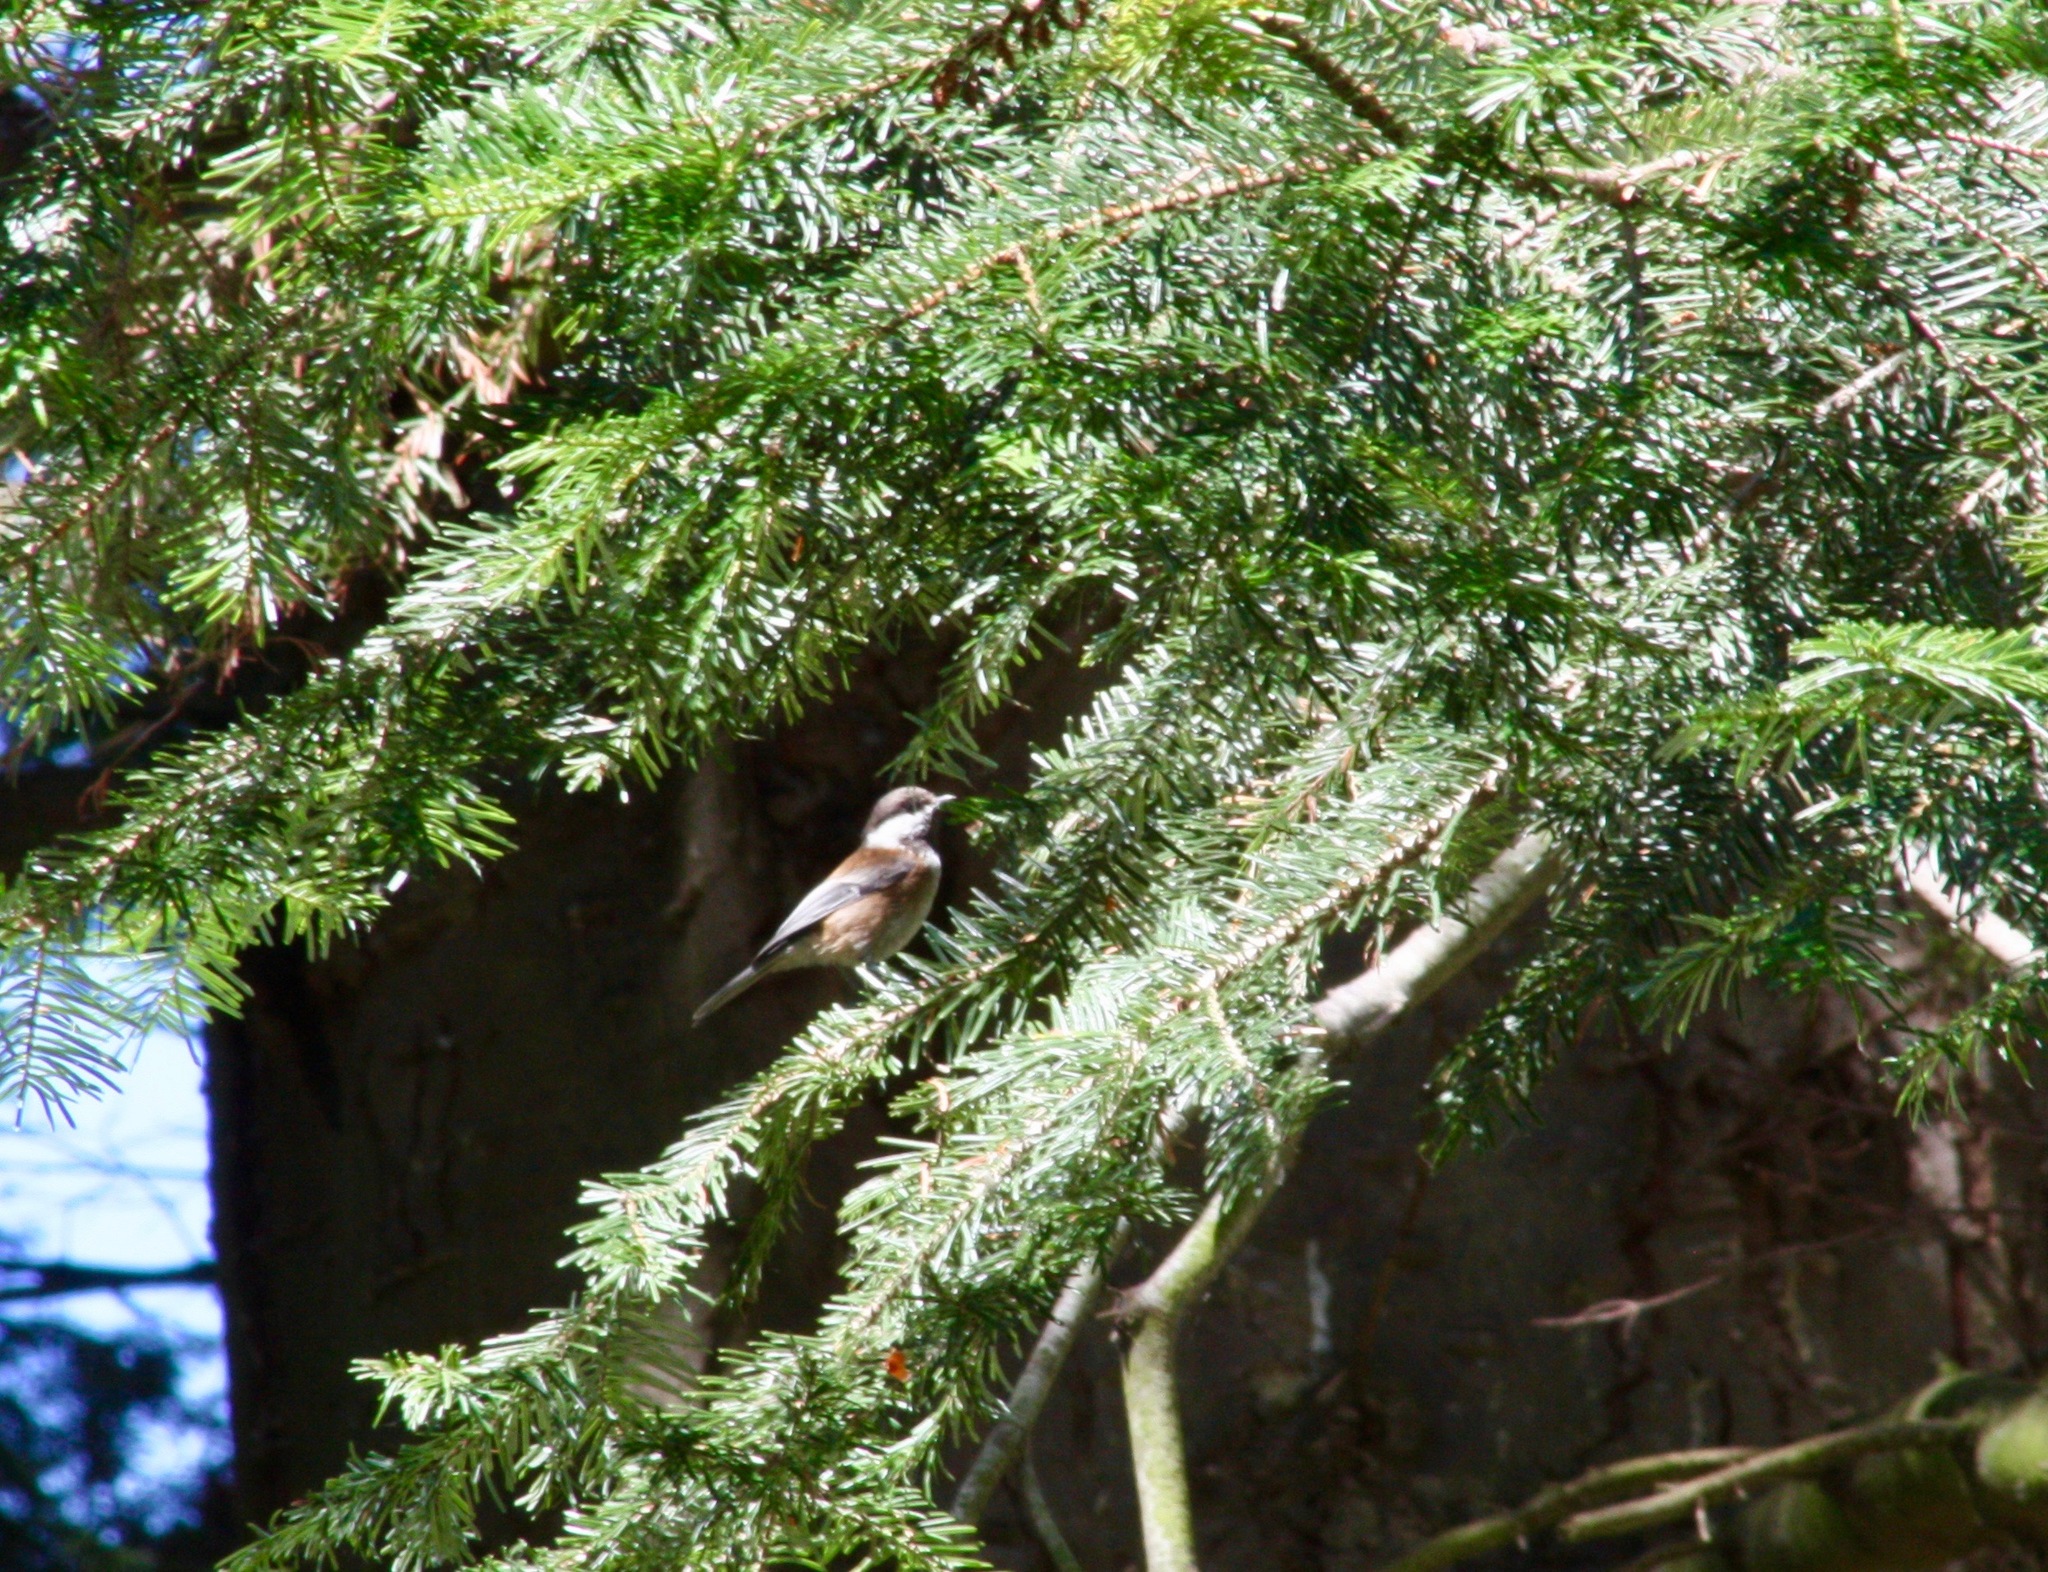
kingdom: Animalia
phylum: Chordata
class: Aves
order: Passeriformes
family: Paridae
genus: Poecile
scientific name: Poecile rufescens
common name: Chestnut-backed chickadee
